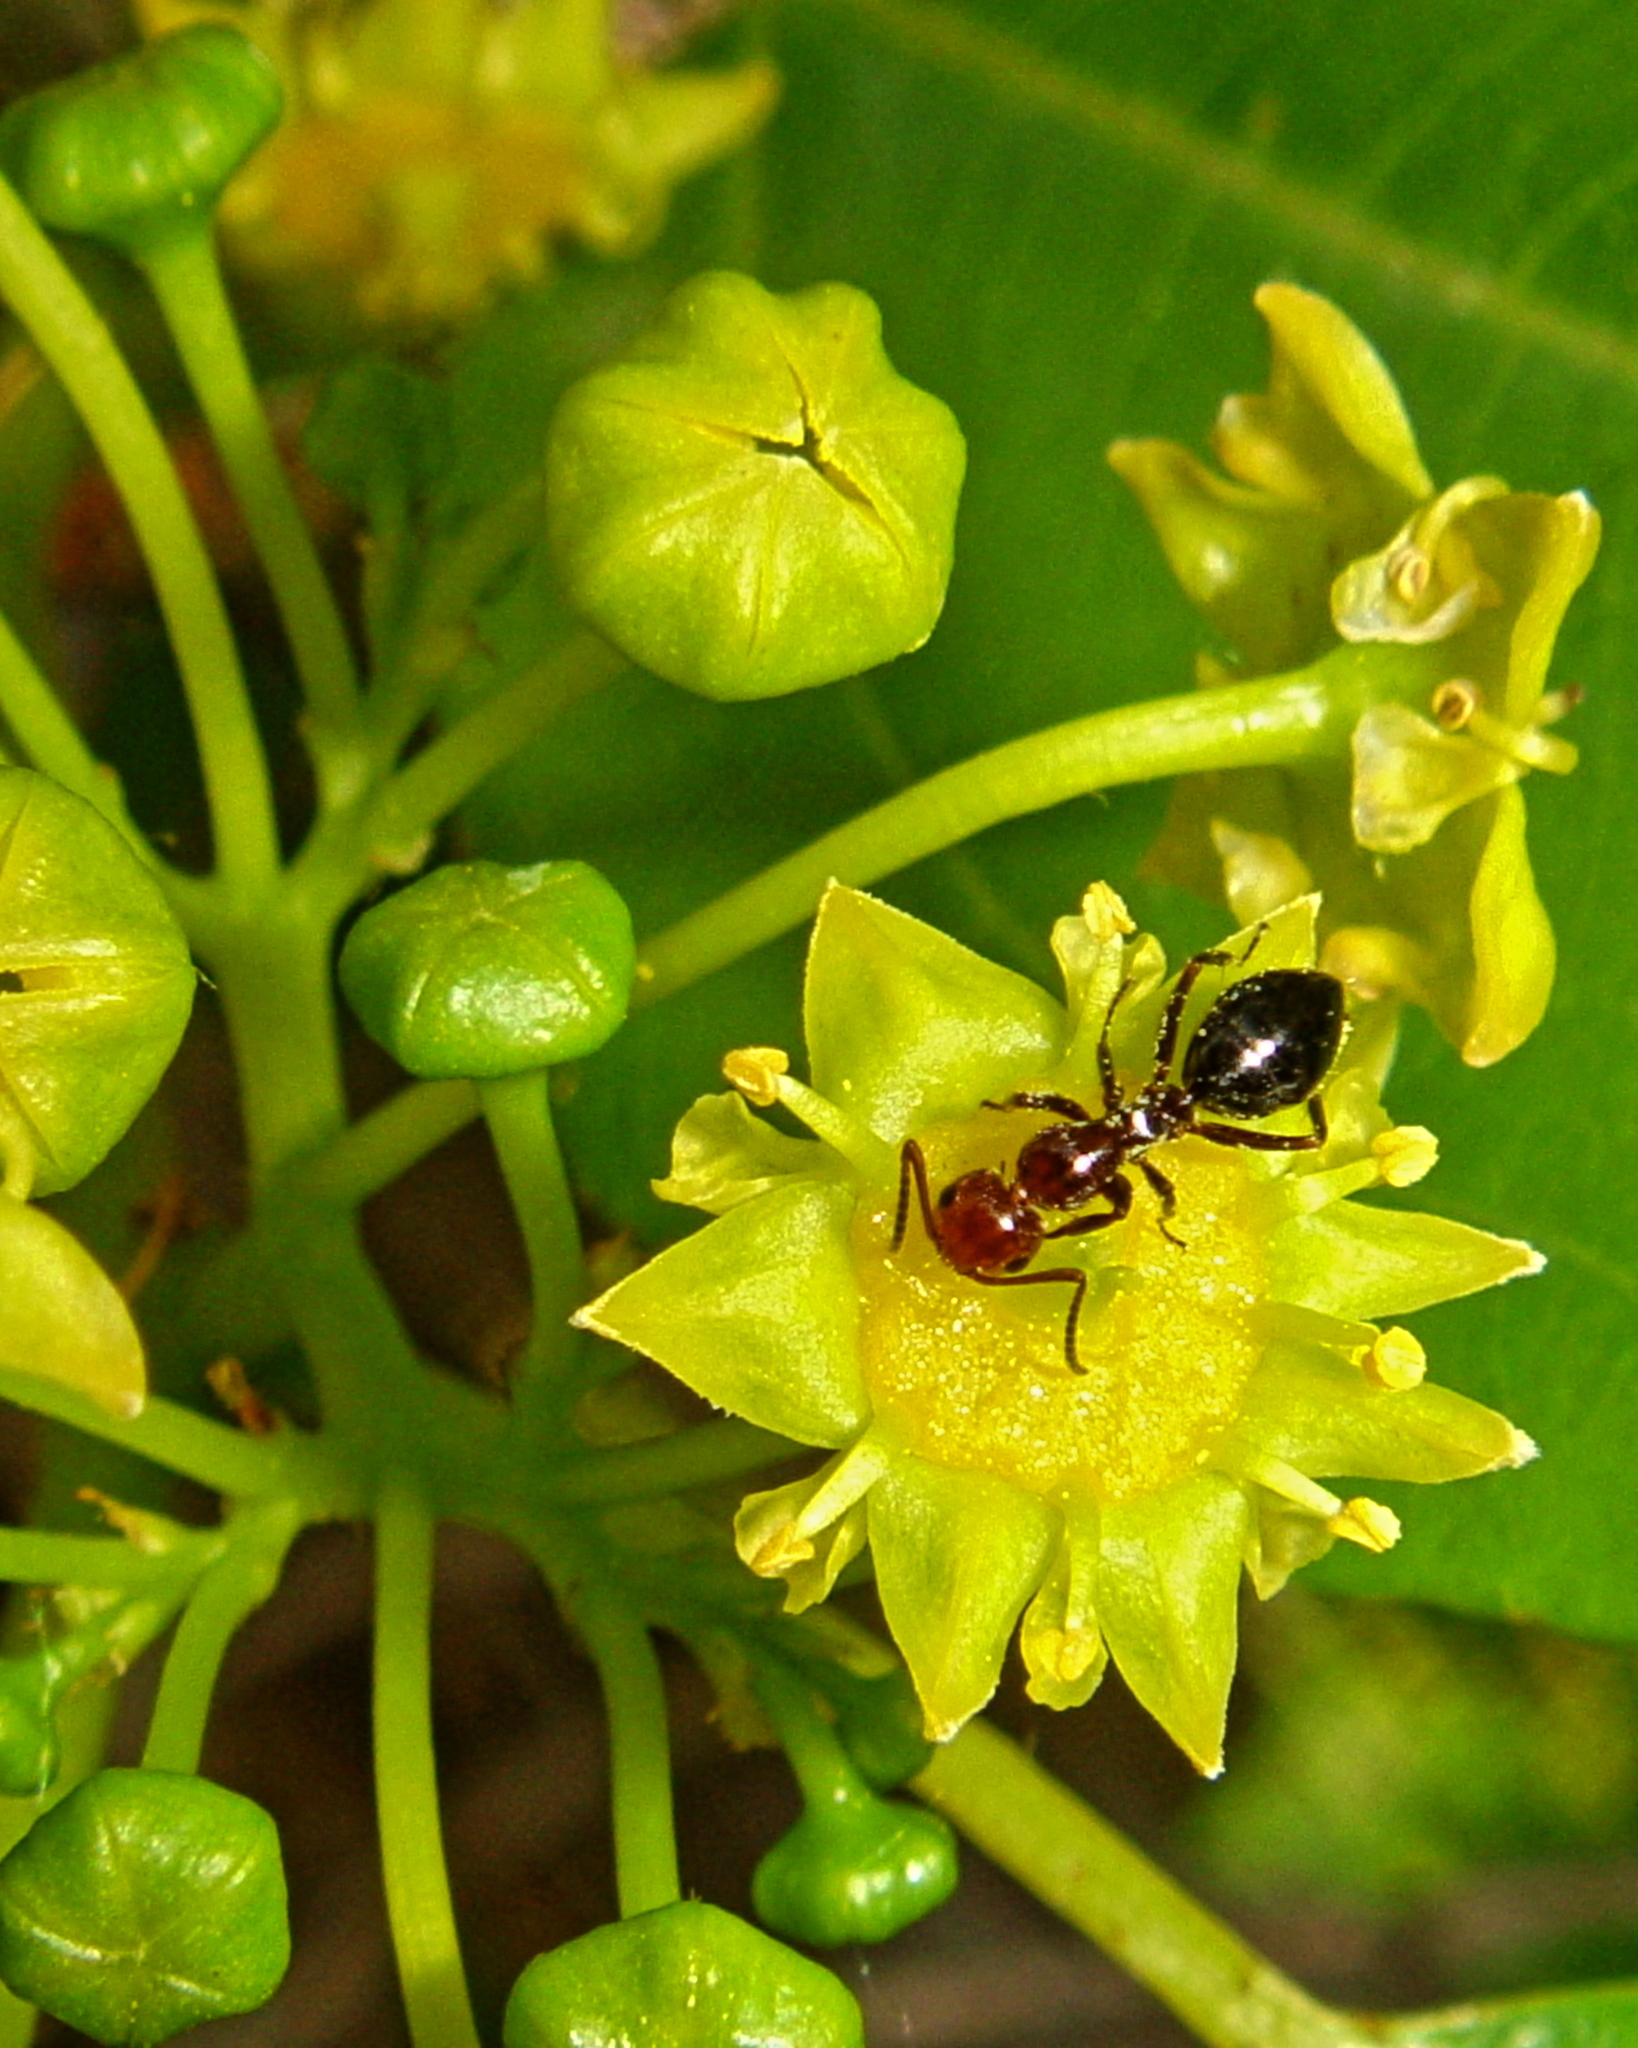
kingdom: Animalia
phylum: Arthropoda
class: Insecta
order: Hymenoptera
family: Formicidae
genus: Camponotus
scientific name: Camponotus lateralis
